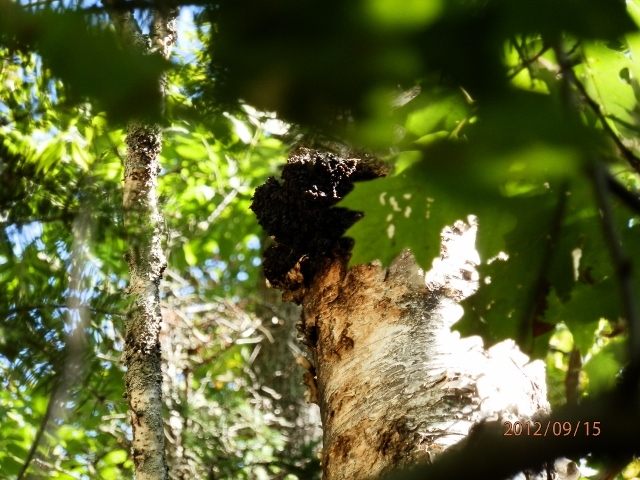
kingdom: Fungi
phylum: Basidiomycota
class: Agaricomycetes
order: Hymenochaetales
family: Hymenochaetaceae
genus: Inonotus
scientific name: Inonotus obliquus
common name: Chaga
